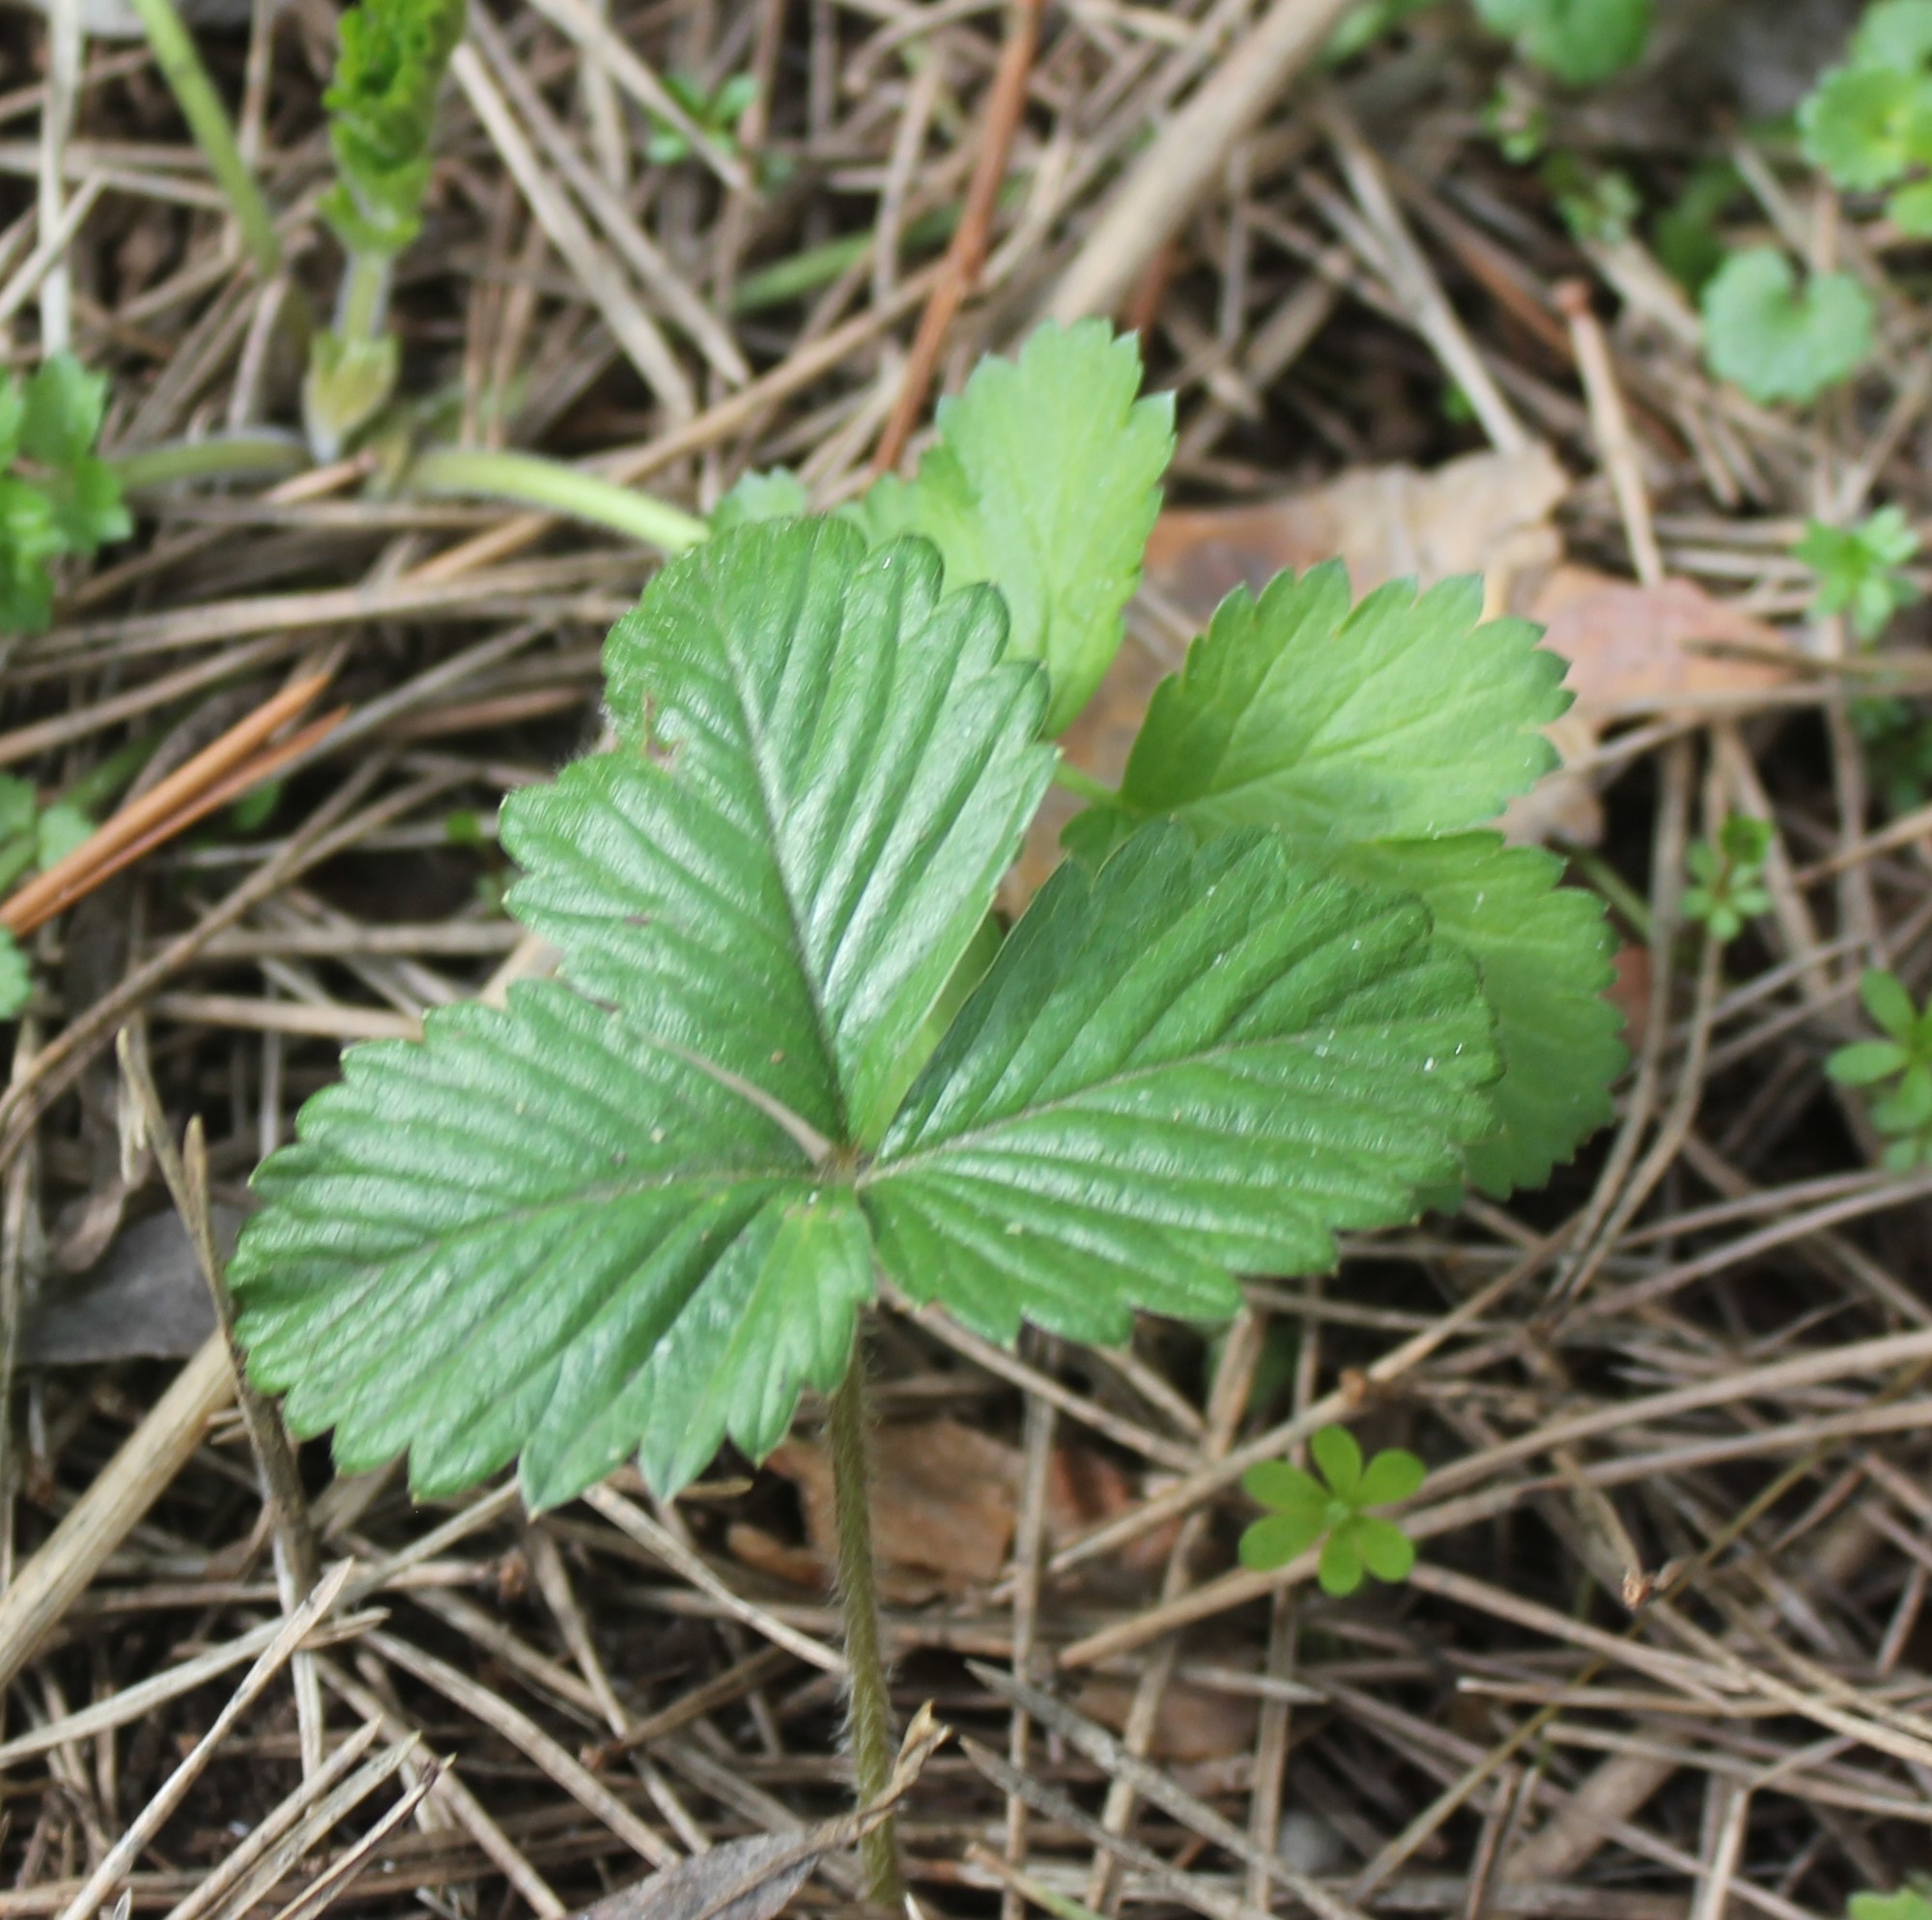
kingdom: Plantae
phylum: Tracheophyta
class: Magnoliopsida
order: Rosales
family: Rosaceae
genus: Fragaria
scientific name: Fragaria vesca
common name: Wild strawberry
